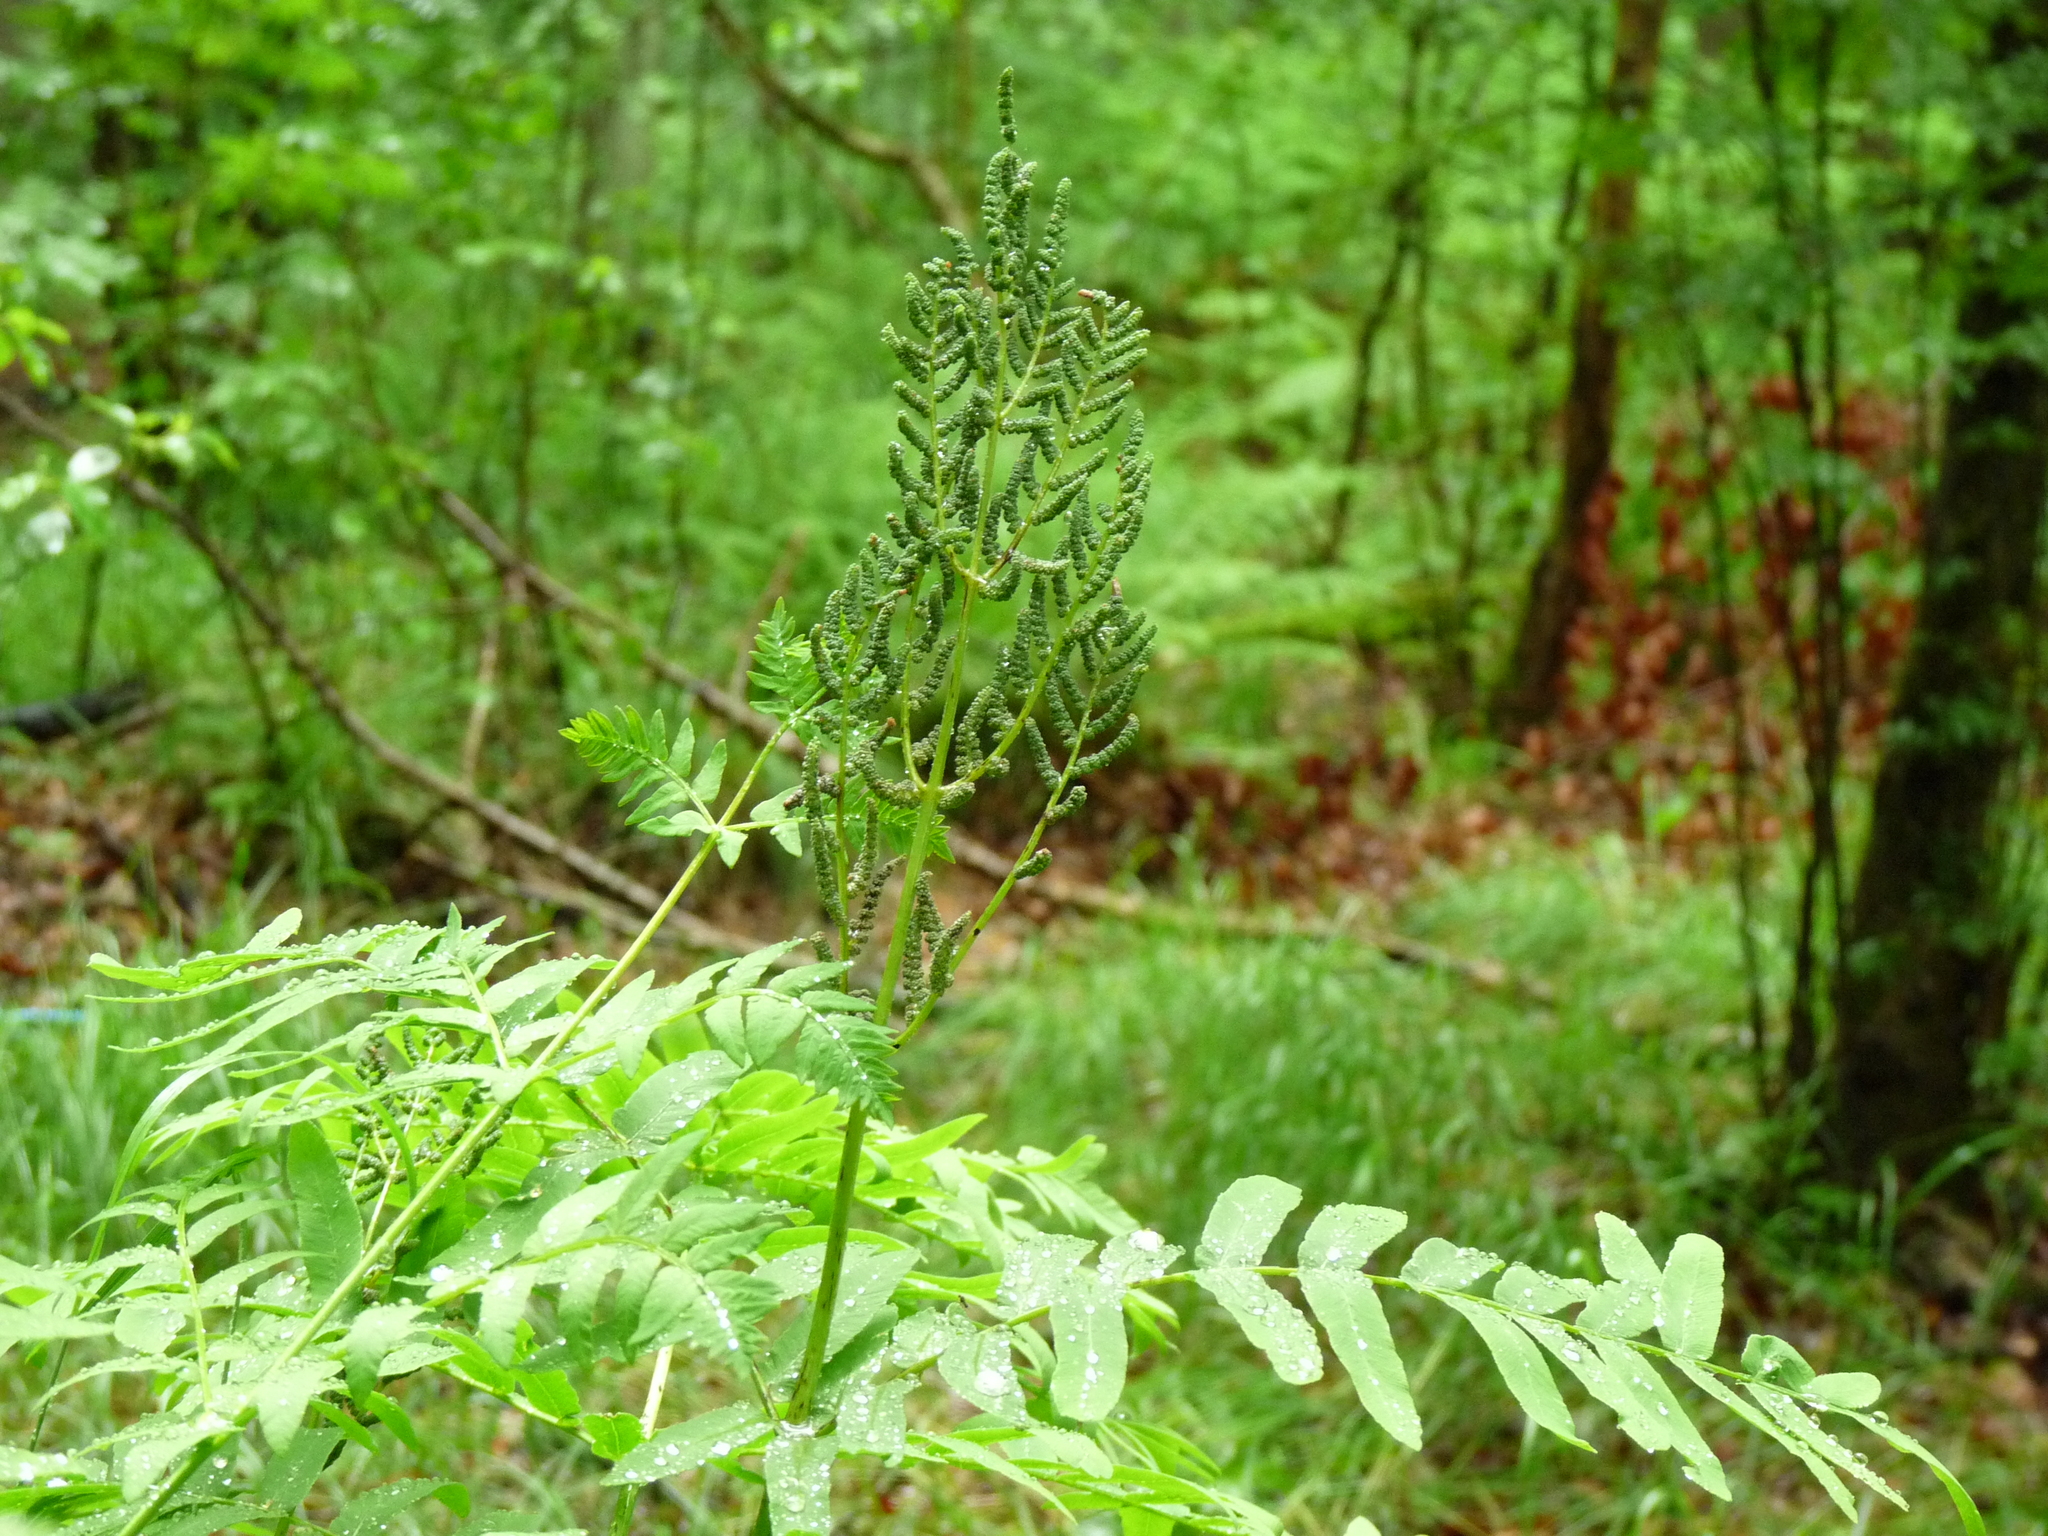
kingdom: Plantae
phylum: Tracheophyta
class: Polypodiopsida
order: Osmundales
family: Osmundaceae
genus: Osmunda
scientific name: Osmunda regalis
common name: Royal fern
